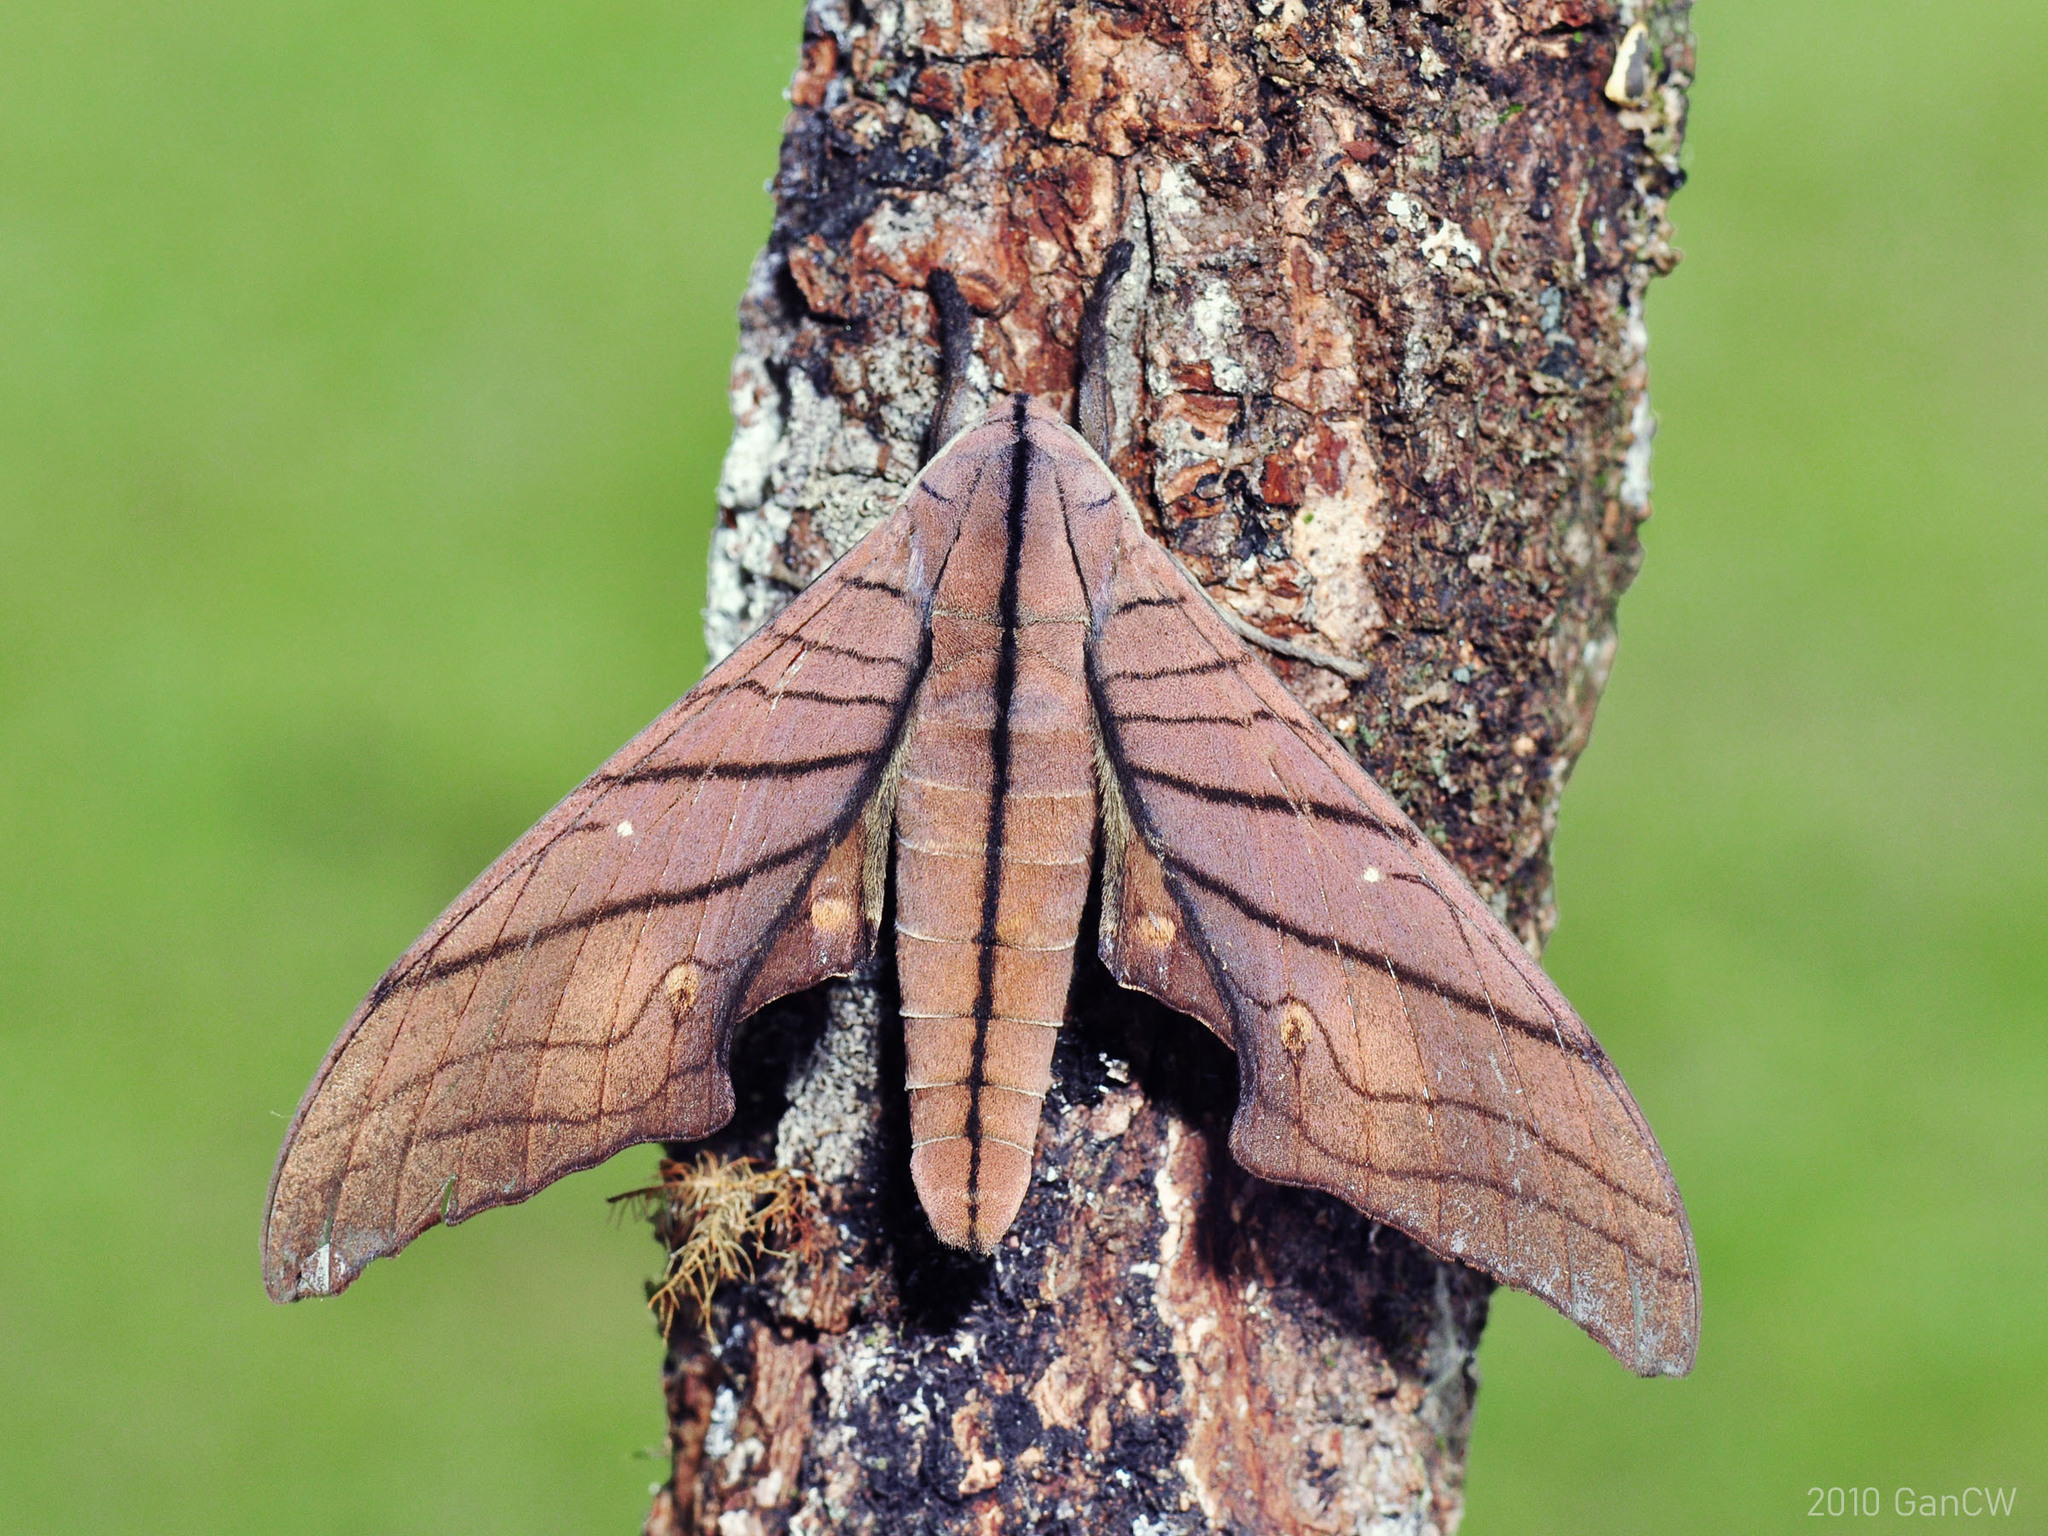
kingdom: Animalia
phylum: Arthropoda
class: Insecta
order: Lepidoptera
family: Sphingidae
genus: Marumba
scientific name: Marumba cristata
